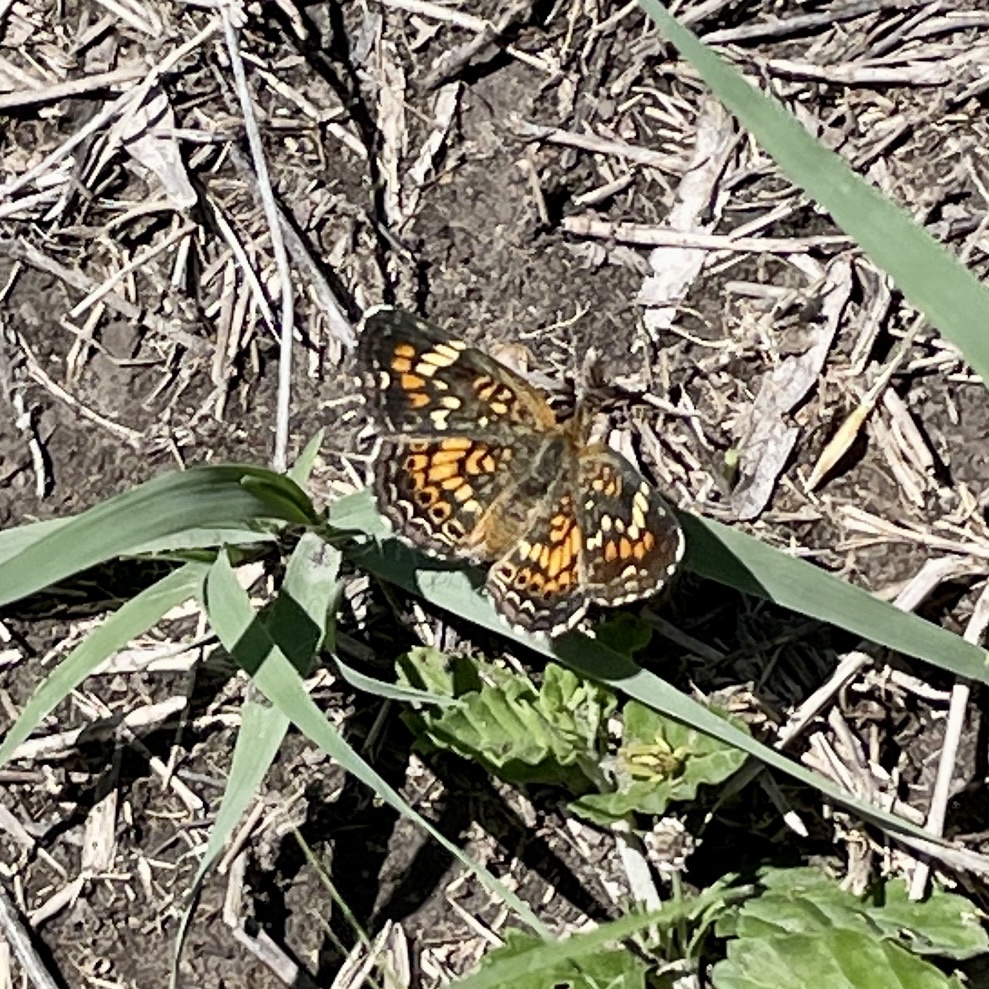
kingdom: Animalia
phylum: Arthropoda
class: Insecta
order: Lepidoptera
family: Nymphalidae
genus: Phyciodes
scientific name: Phyciodes phaon
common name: Phaon crescent
